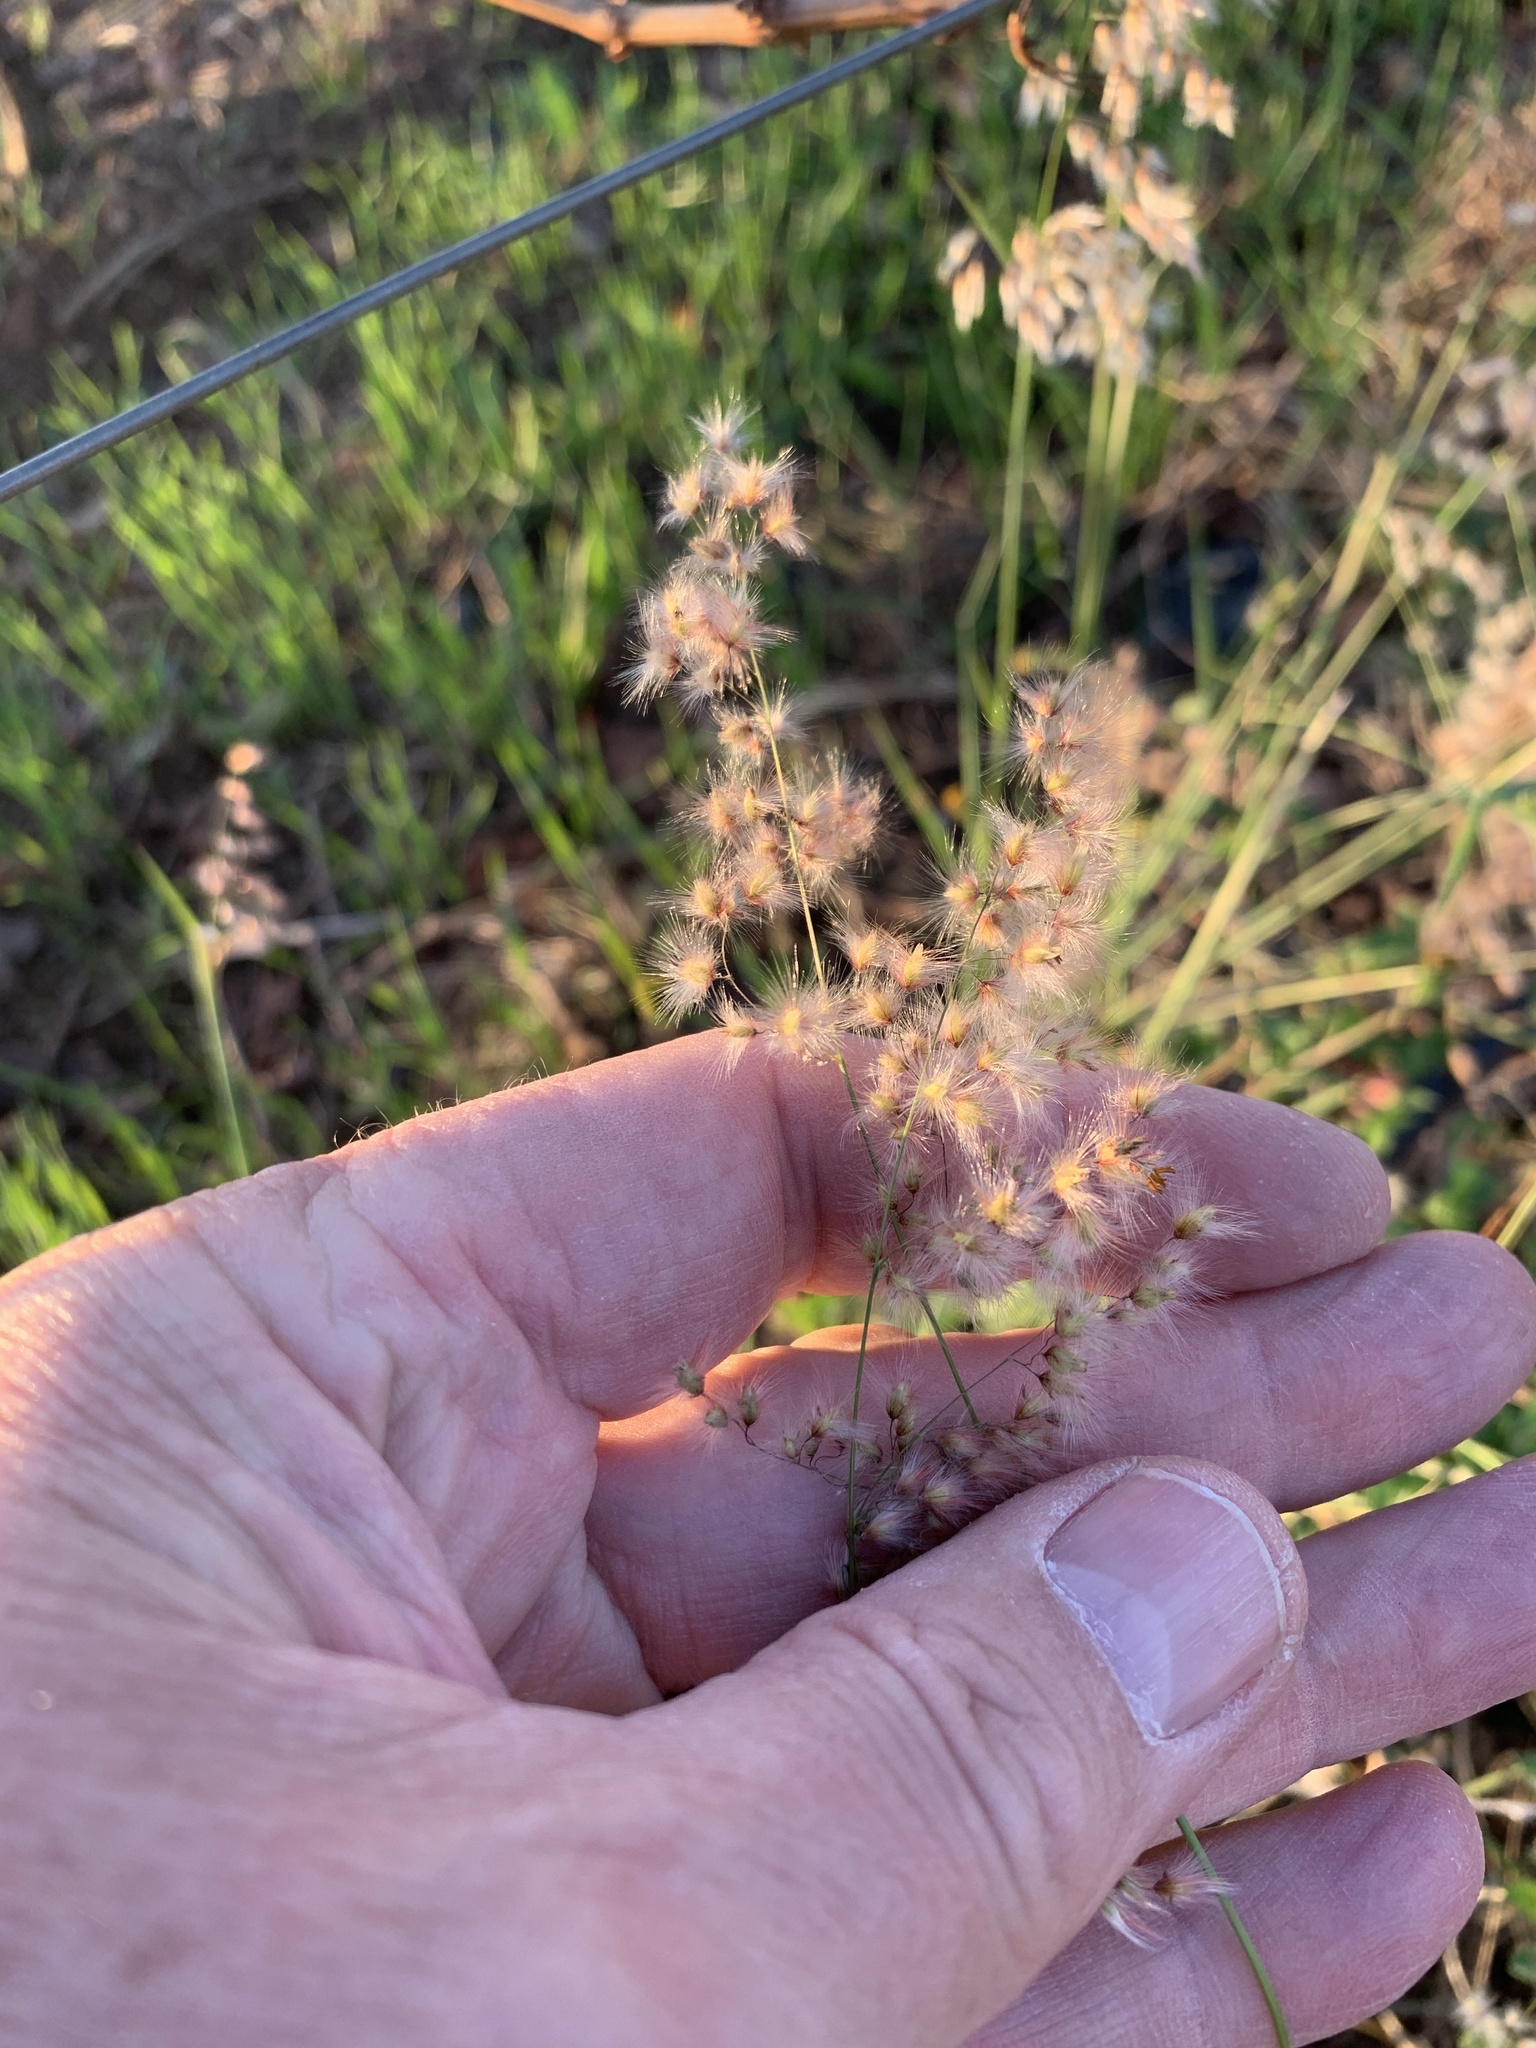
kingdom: Plantae
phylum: Tracheophyta
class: Liliopsida
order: Poales
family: Poaceae
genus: Melinis
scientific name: Melinis repens
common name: Rose natal grass
